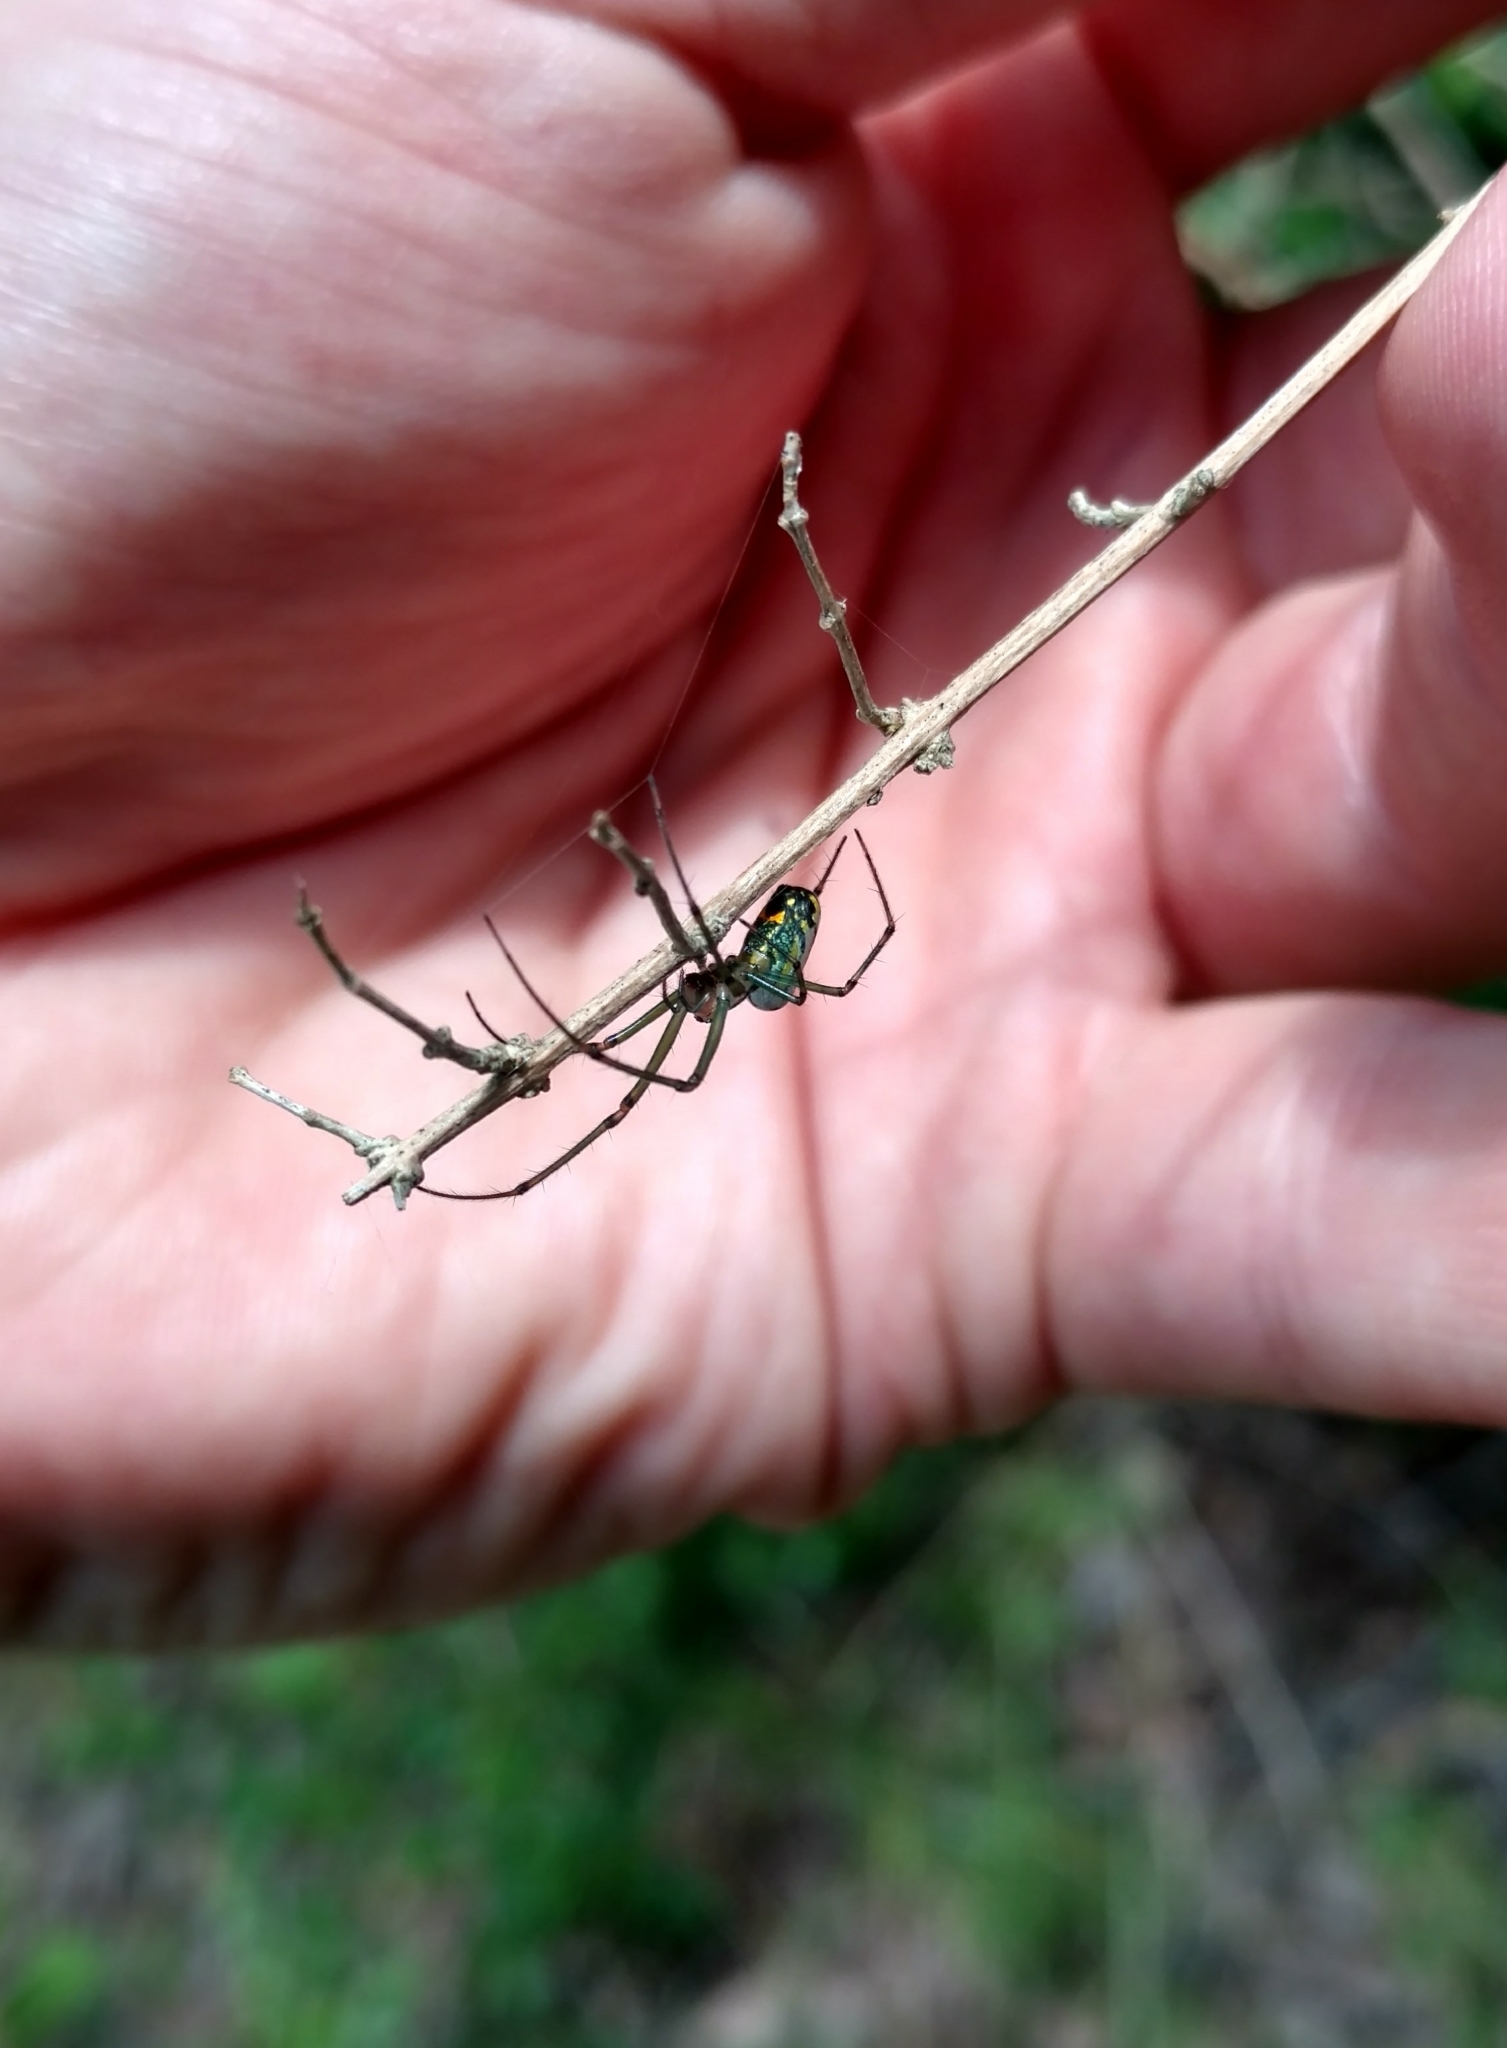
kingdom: Animalia
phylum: Arthropoda
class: Arachnida
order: Araneae
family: Tetragnathidae
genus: Leucauge
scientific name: Leucauge venusta
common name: Longjawed orb weavers
